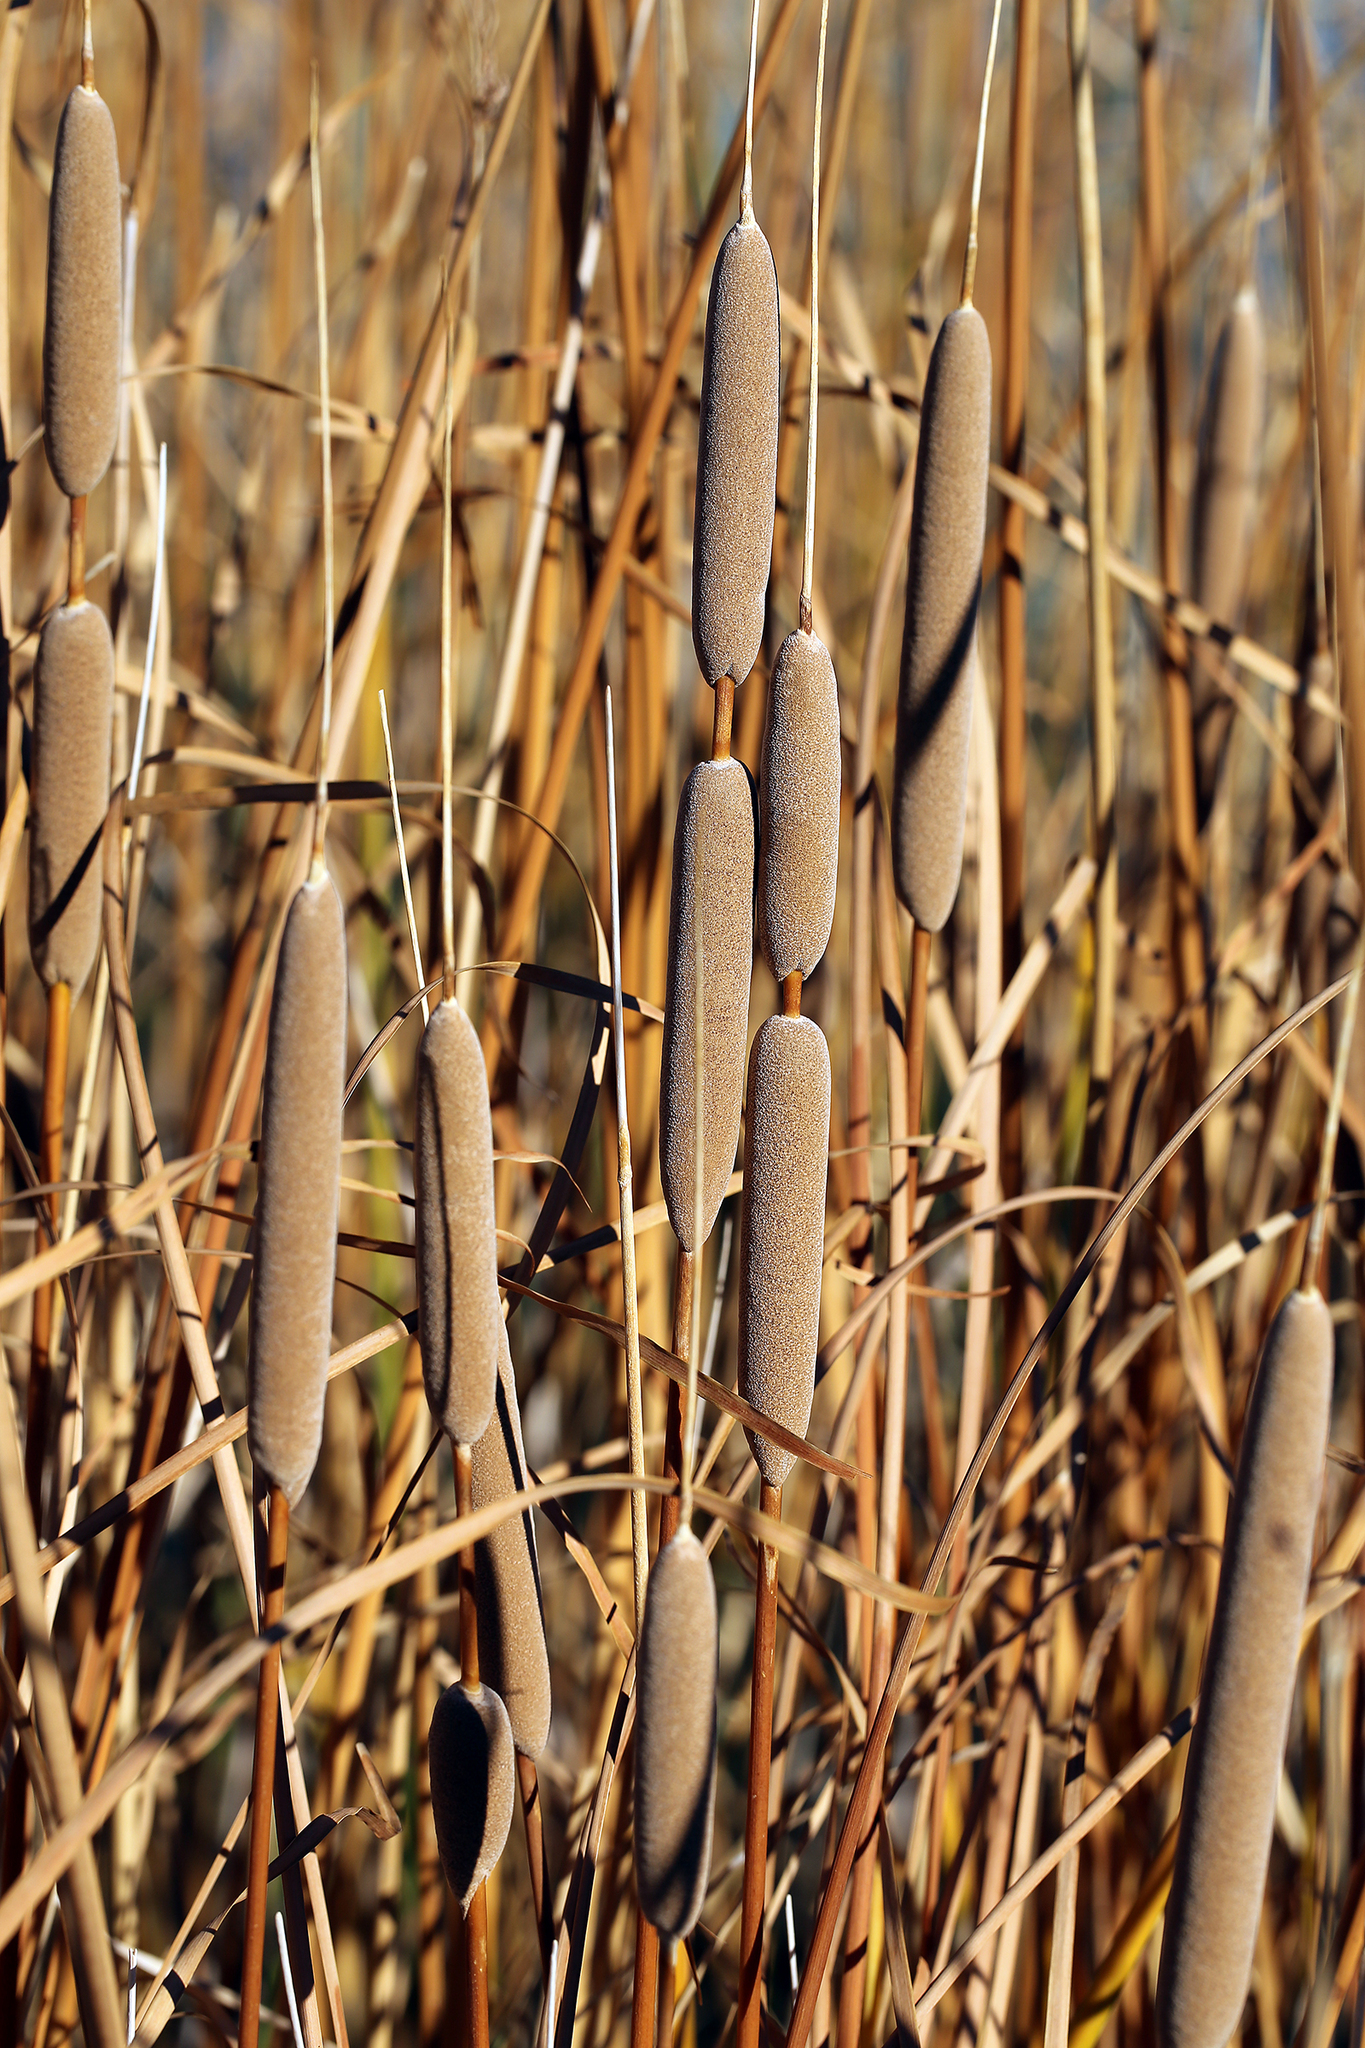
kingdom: Plantae
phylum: Tracheophyta
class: Liliopsida
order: Poales
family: Typhaceae
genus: Typha
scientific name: Typha domingensis
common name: Southern cattail
